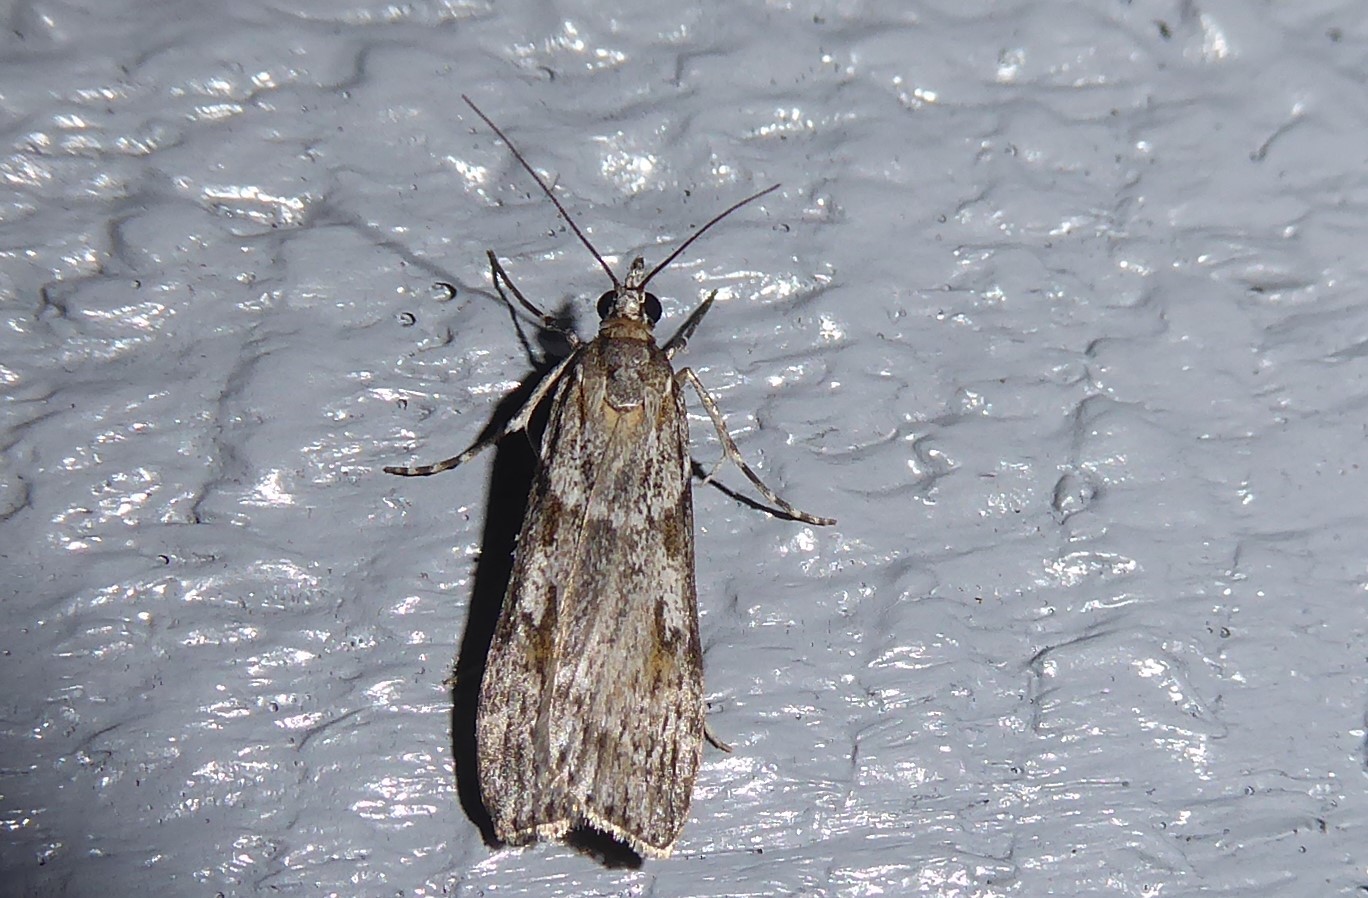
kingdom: Animalia
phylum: Arthropoda
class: Insecta
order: Lepidoptera
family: Crambidae
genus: Scoparia
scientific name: Scoparia halopis
